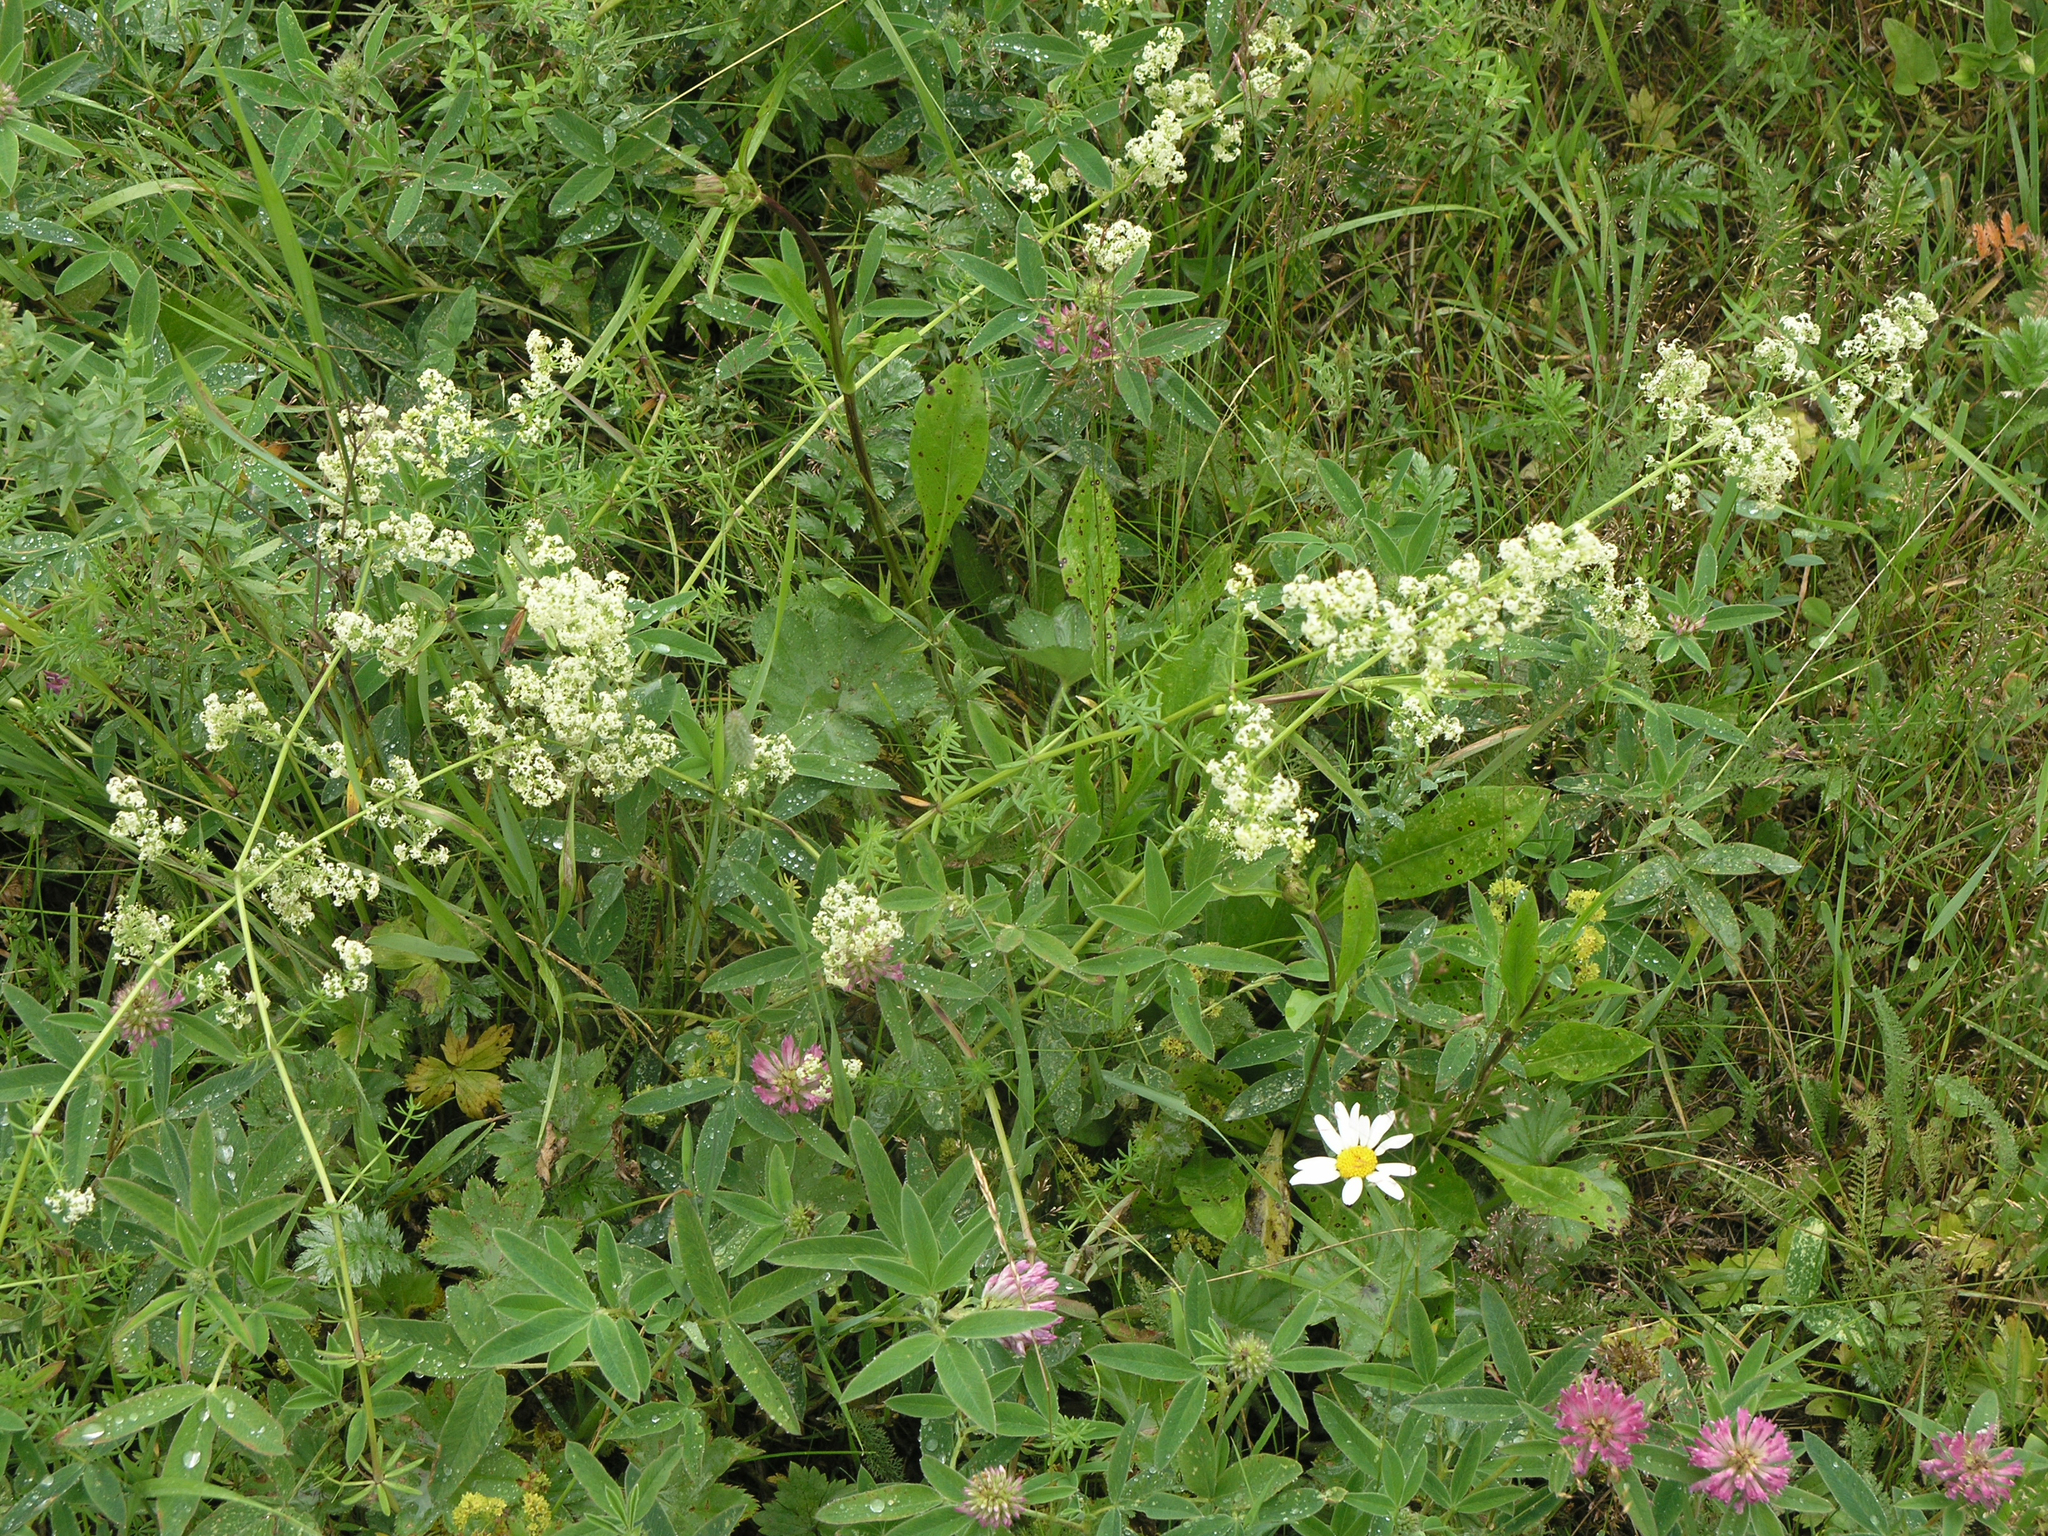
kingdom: Plantae
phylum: Tracheophyta
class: Magnoliopsida
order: Gentianales
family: Rubiaceae
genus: Galium
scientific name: Galium mollugo
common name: Hedge bedstraw
